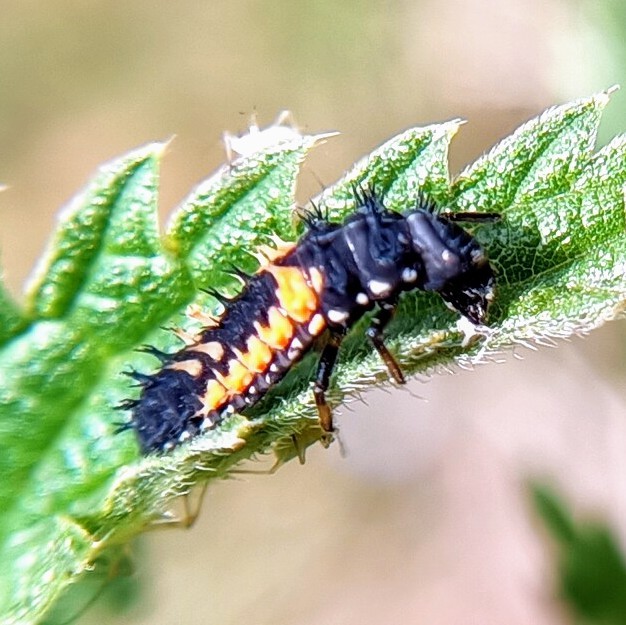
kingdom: Animalia
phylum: Arthropoda
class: Insecta
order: Coleoptera
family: Coccinellidae
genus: Harmonia
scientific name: Harmonia axyridis
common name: Harlequin ladybird
